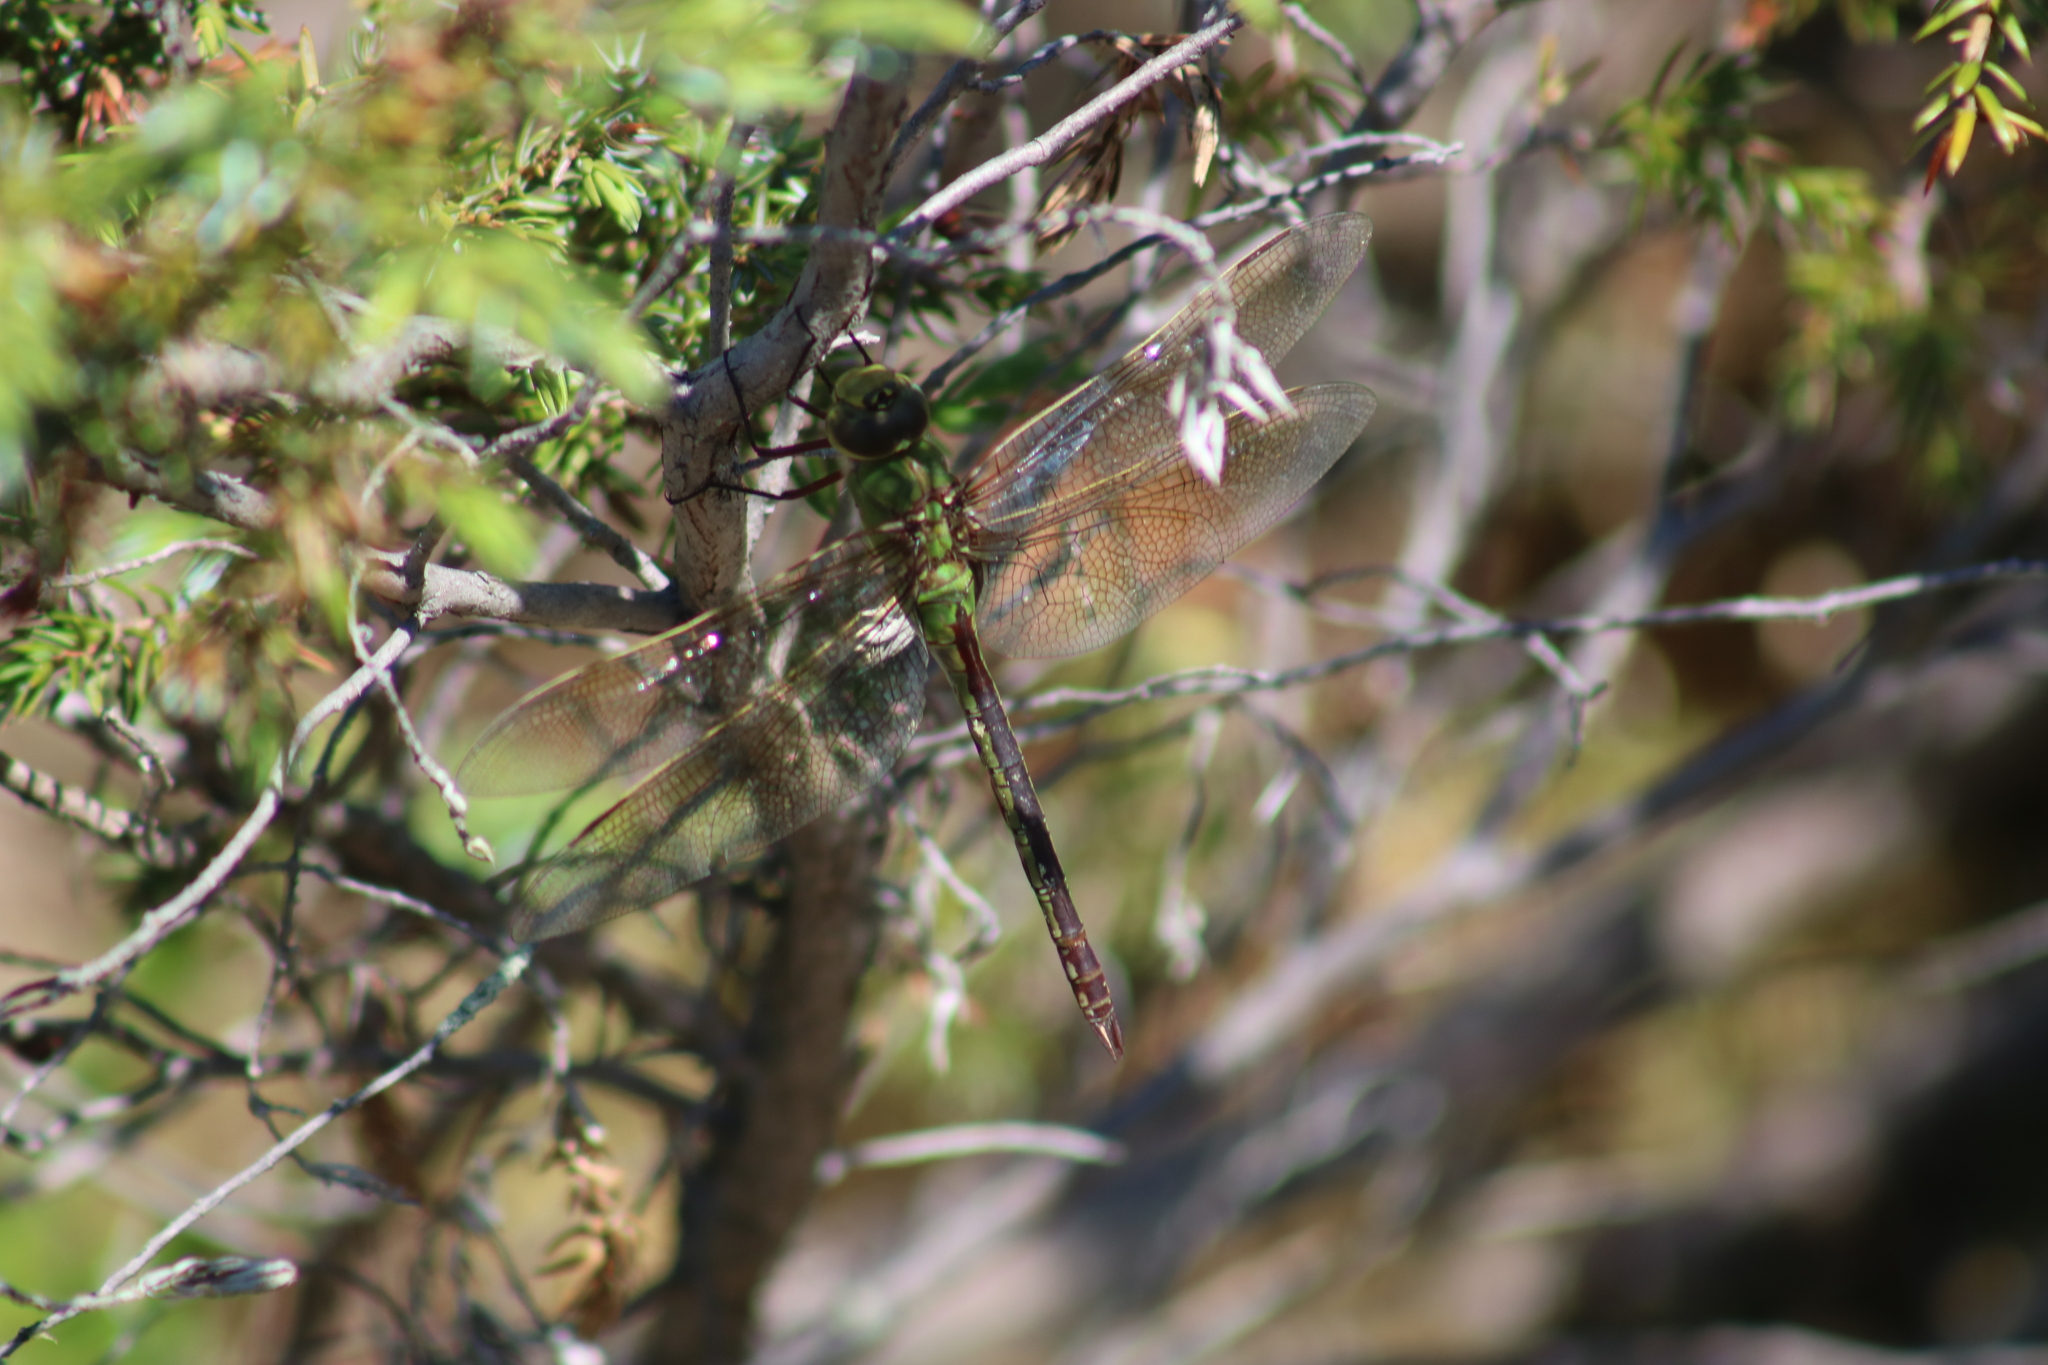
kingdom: Animalia
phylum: Arthropoda
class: Insecta
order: Odonata
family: Aeshnidae
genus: Anax
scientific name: Anax junius
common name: Common green darner
